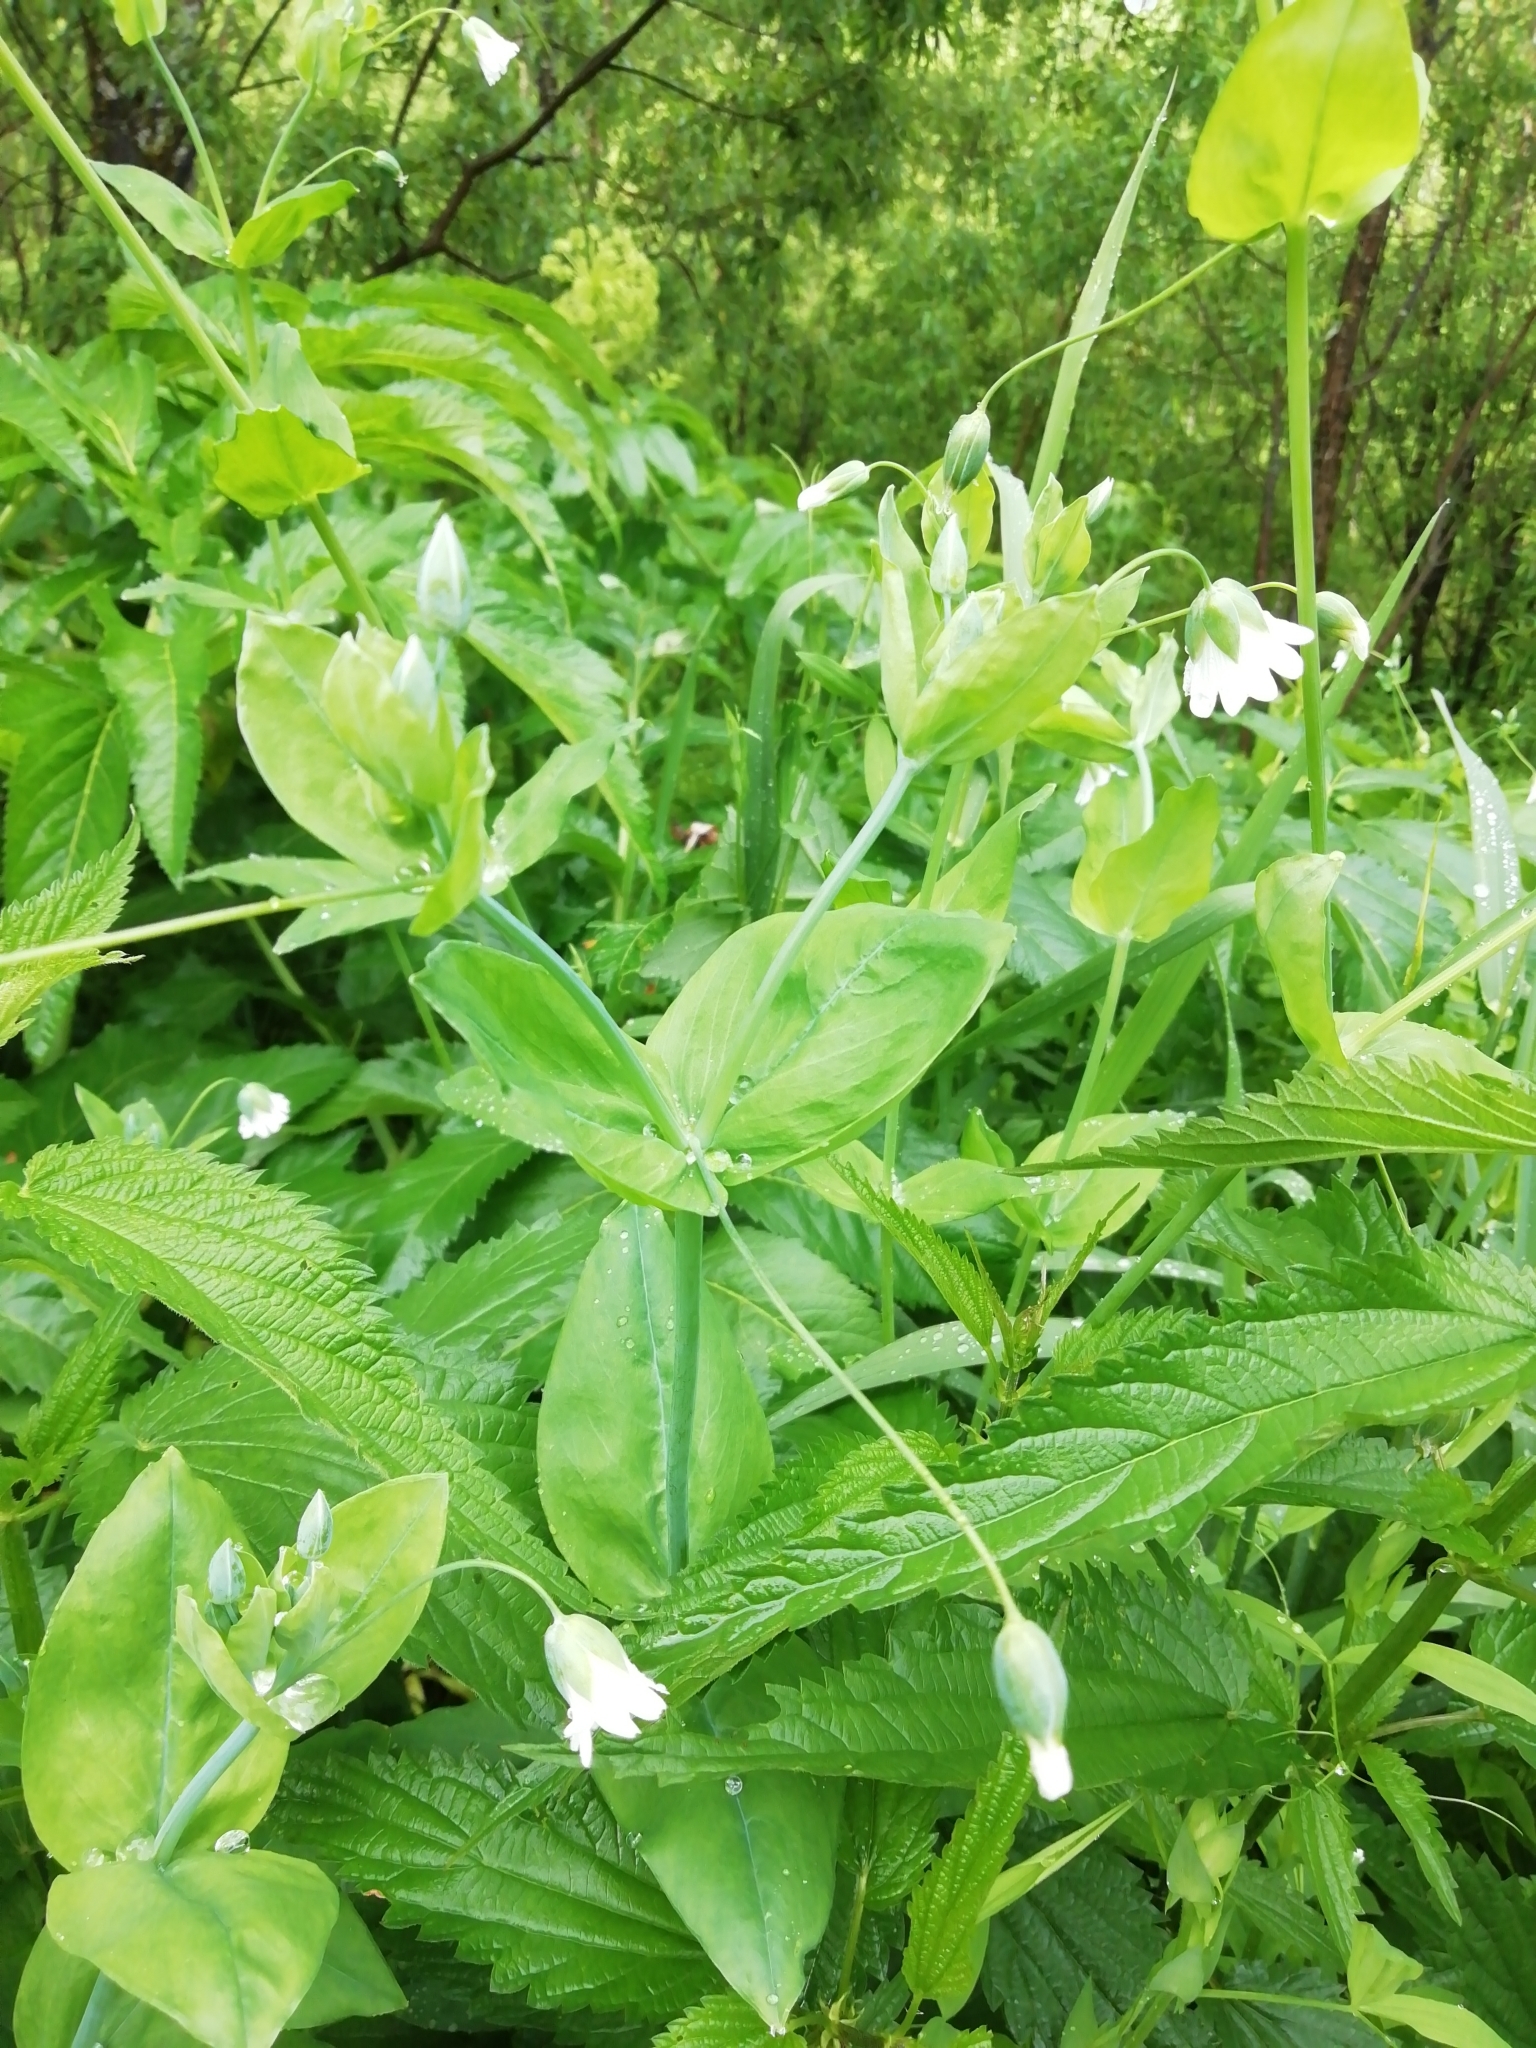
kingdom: Plantae
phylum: Tracheophyta
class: Magnoliopsida
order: Caryophyllales
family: Caryophyllaceae
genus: Cerastium
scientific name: Cerastium davuricum
